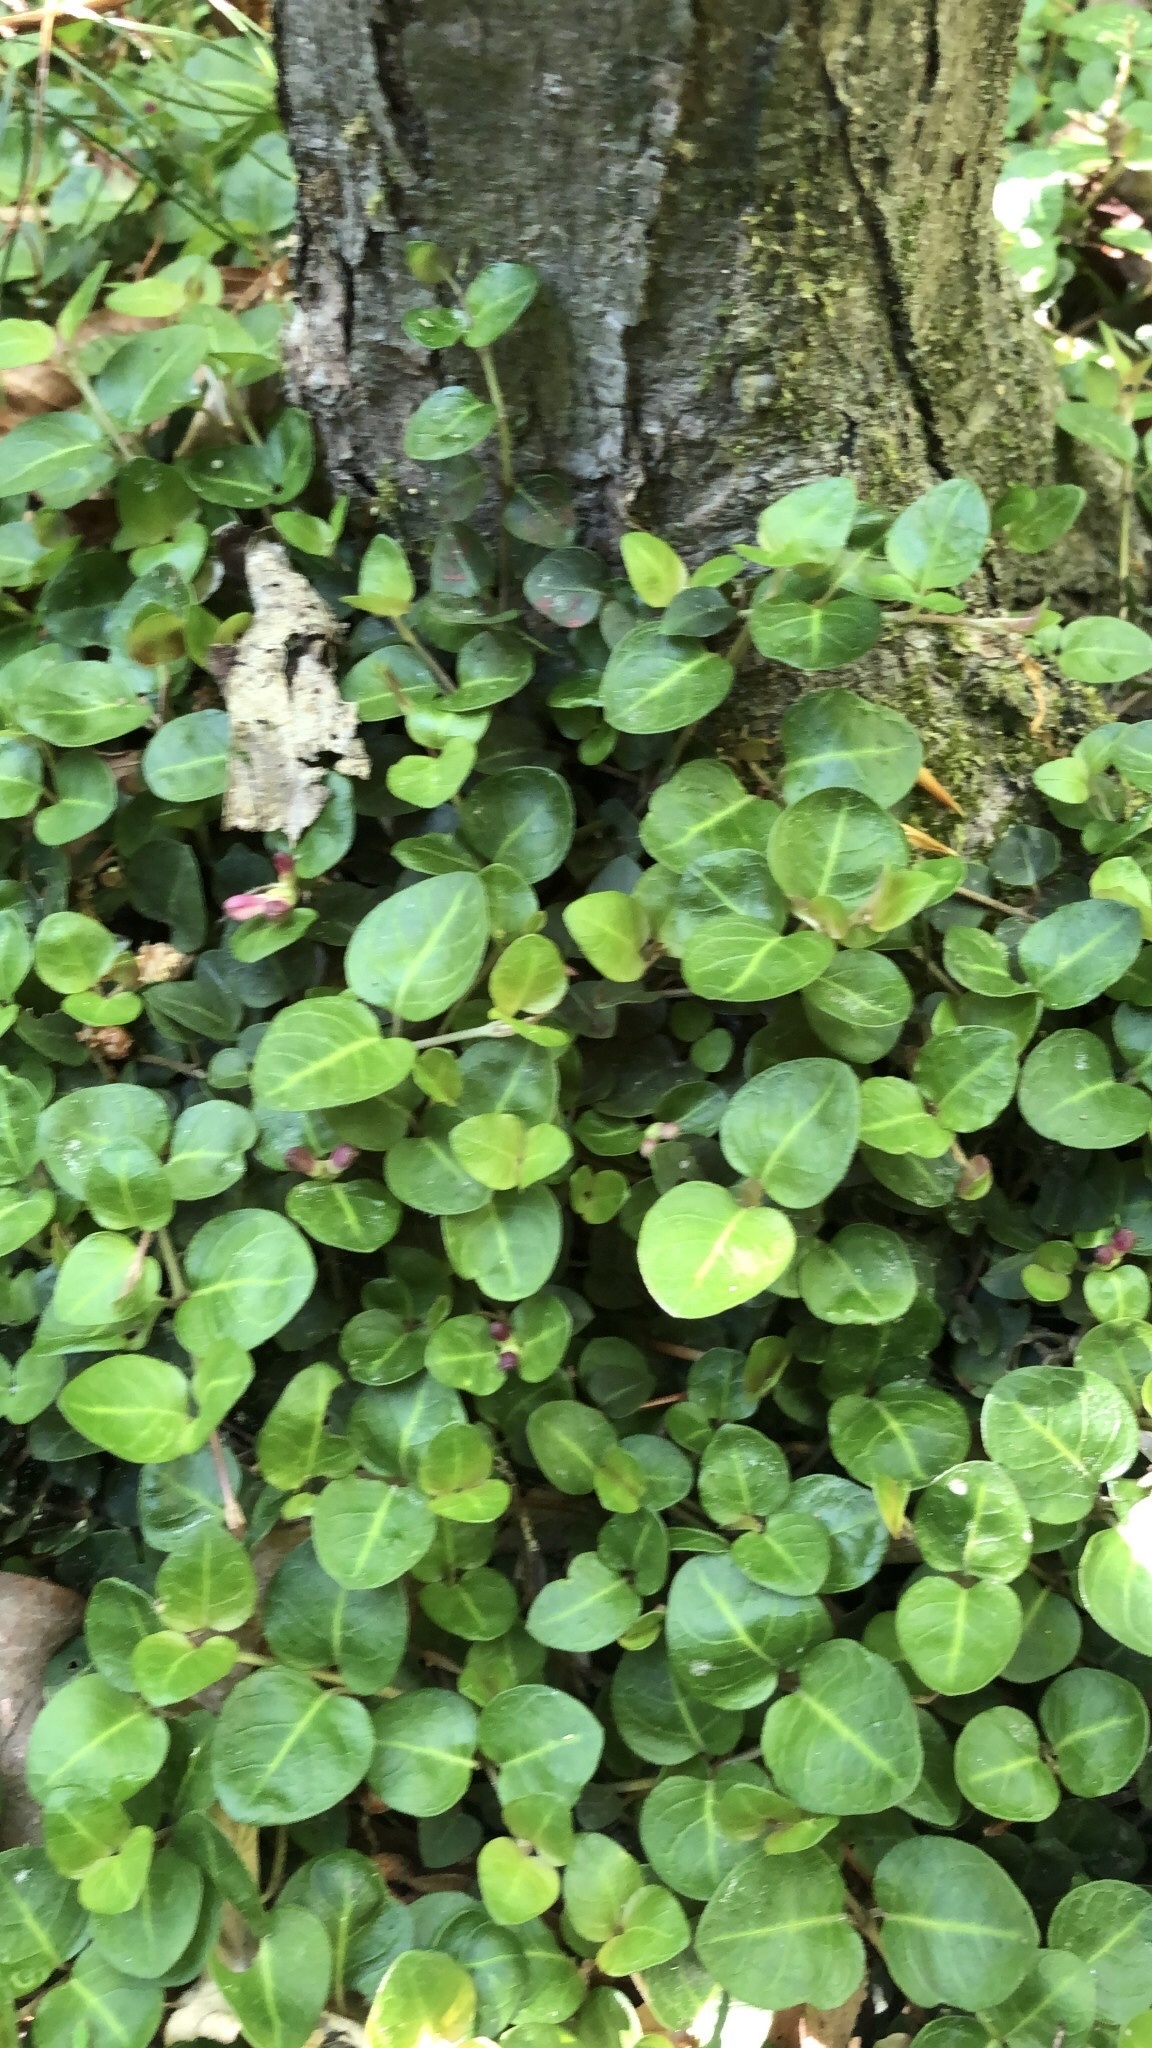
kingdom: Plantae
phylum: Tracheophyta
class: Magnoliopsida
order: Gentianales
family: Rubiaceae
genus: Mitchella
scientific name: Mitchella repens
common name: Partridge-berry
